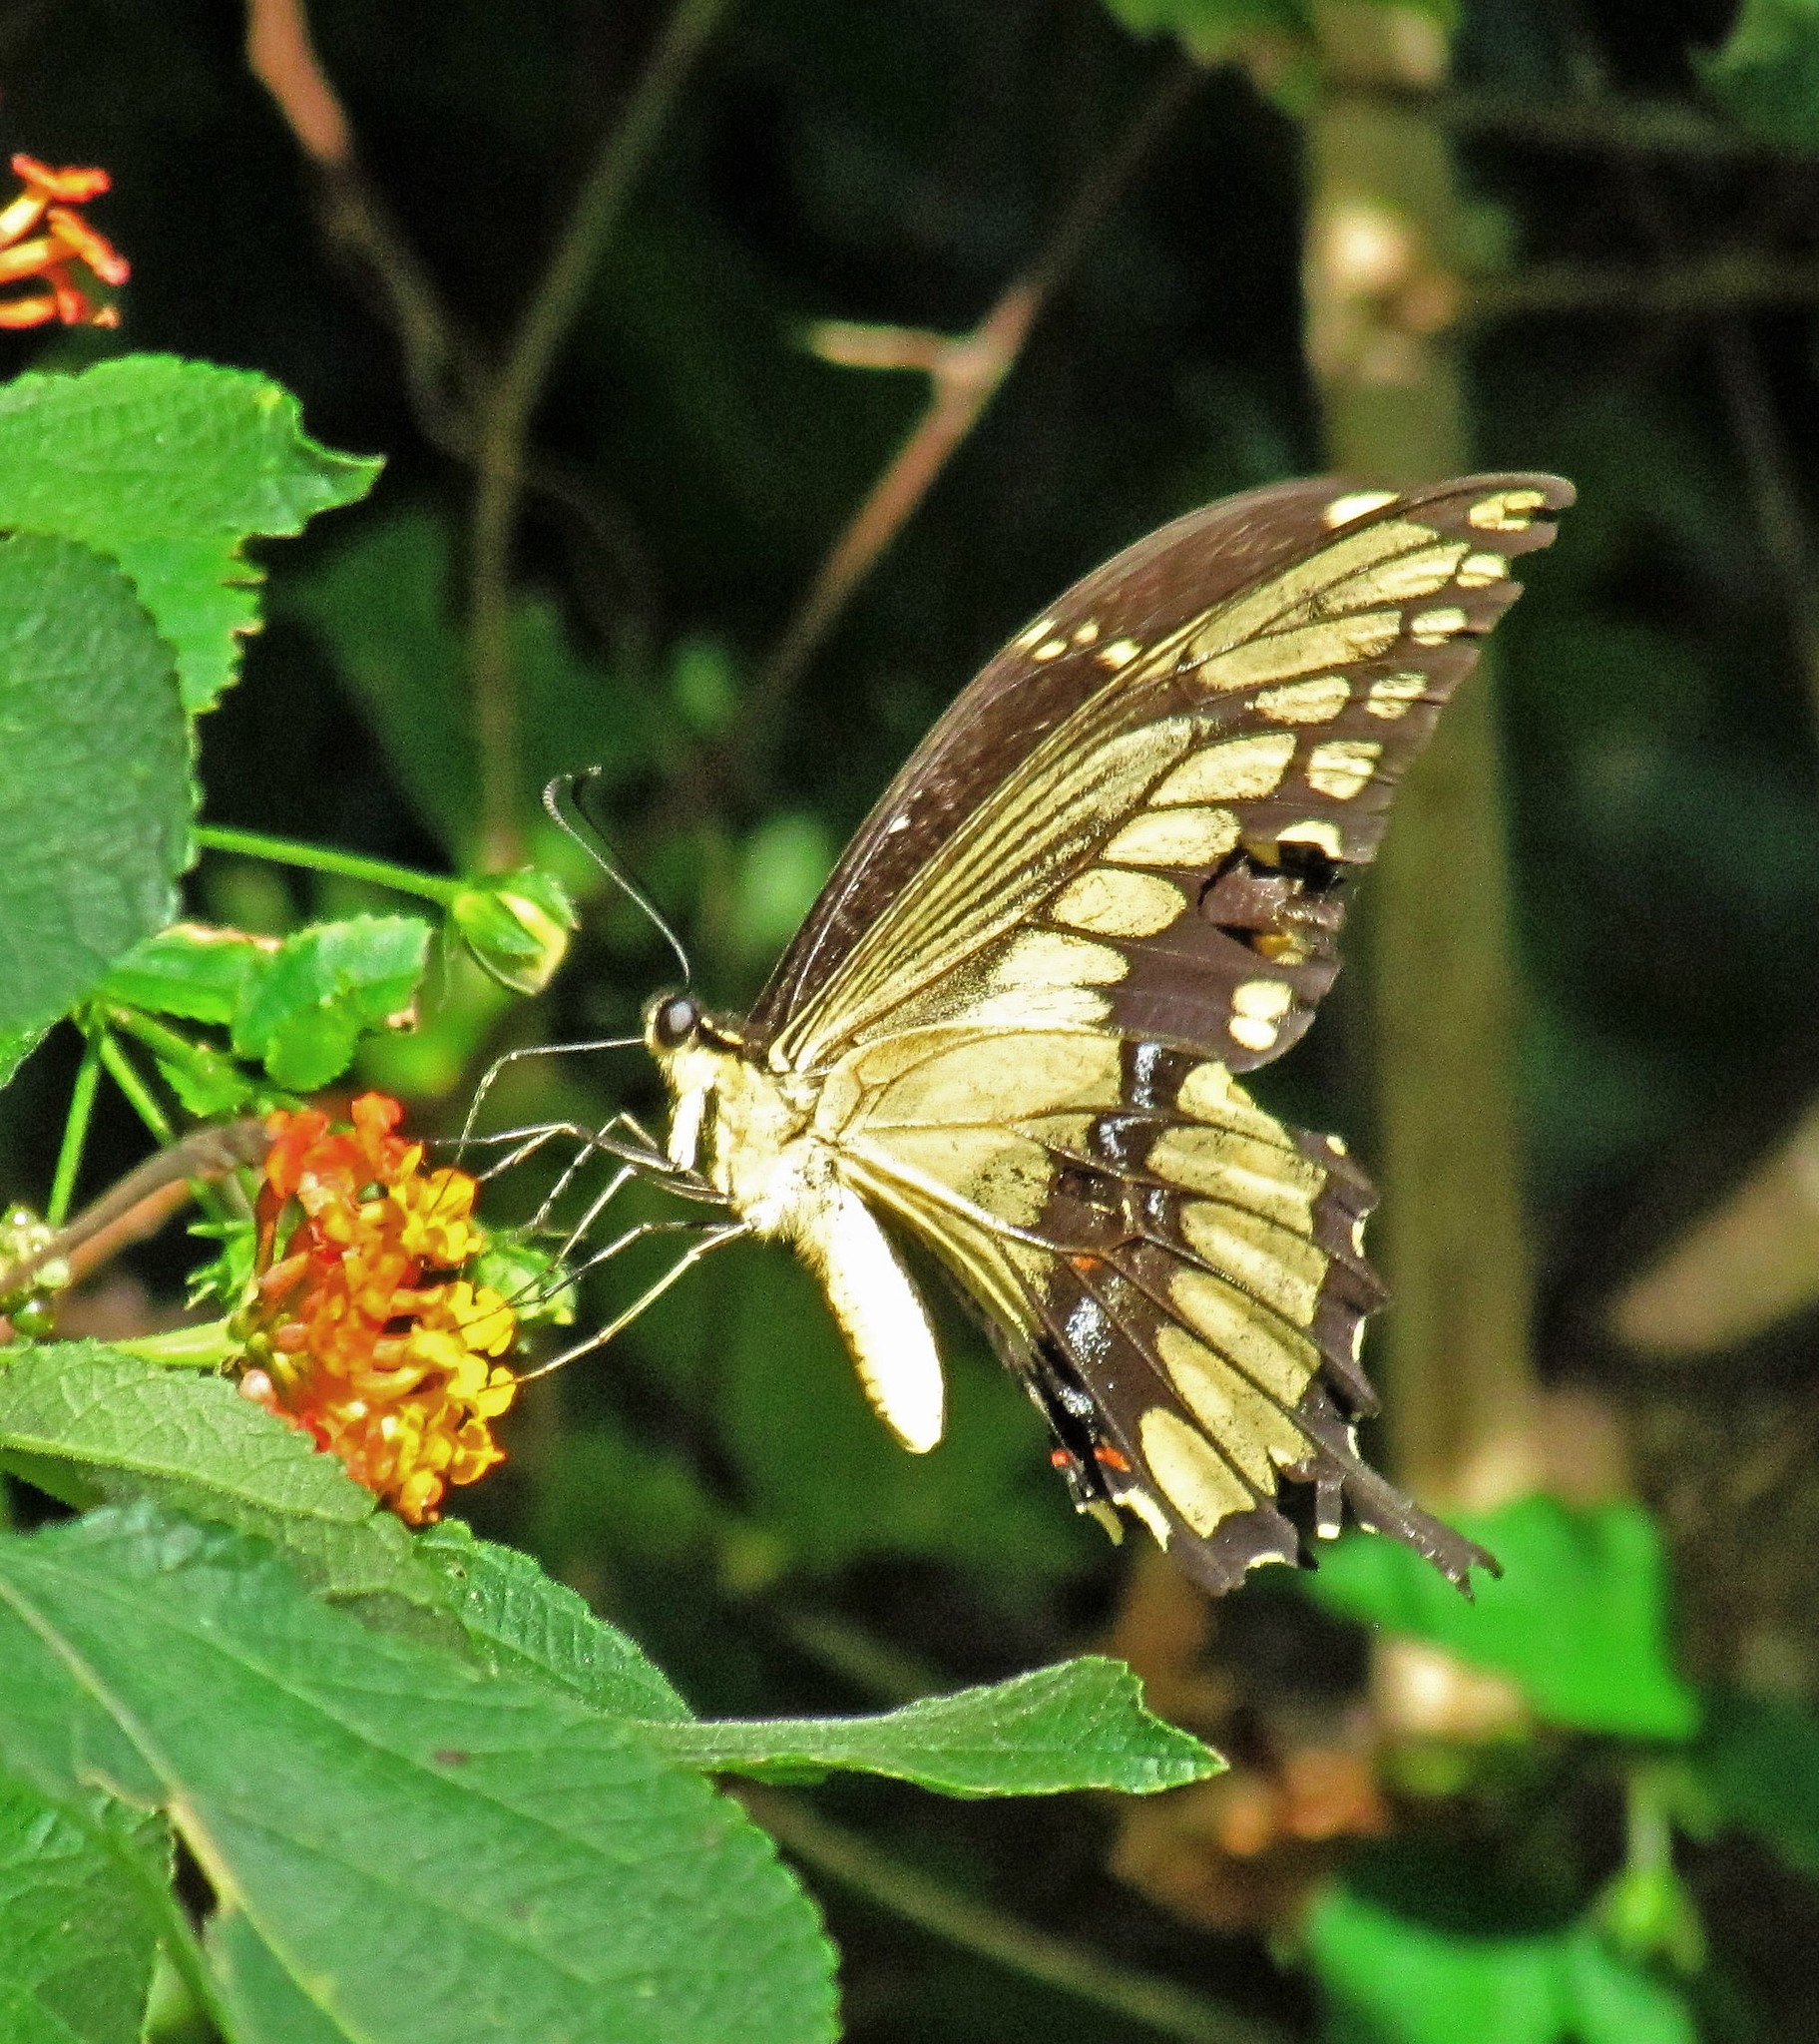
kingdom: Animalia
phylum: Arthropoda
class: Insecta
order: Lepidoptera
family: Papilionidae
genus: Papilio
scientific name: Papilio thoas
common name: King swallowtail
